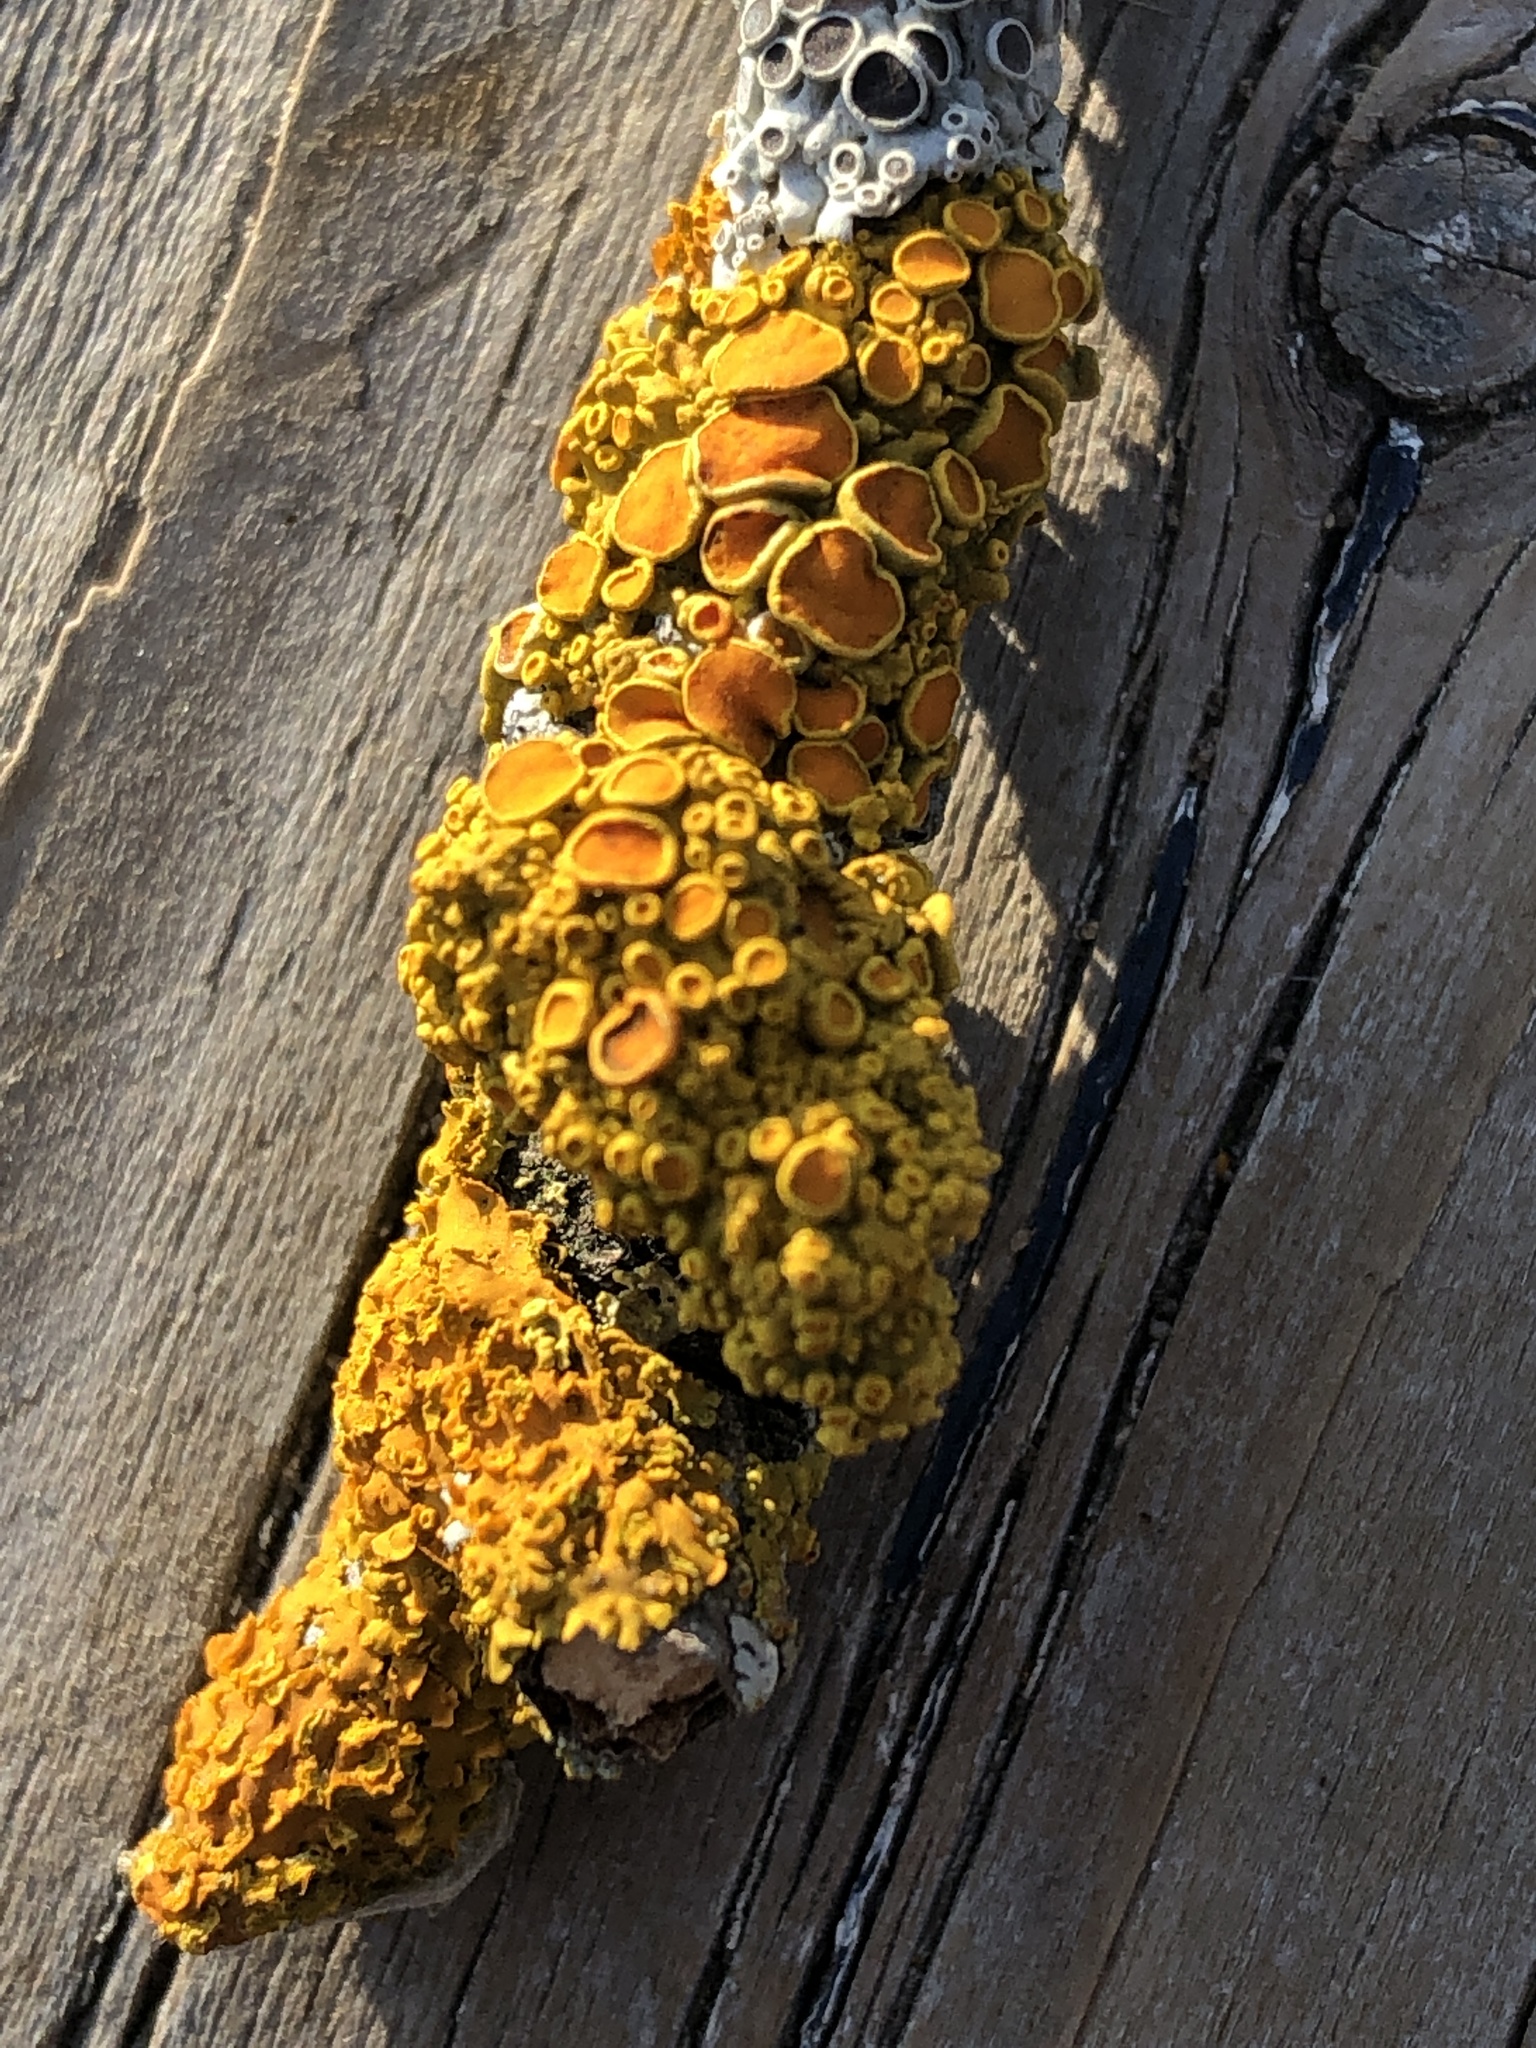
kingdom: Fungi
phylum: Ascomycota
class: Lecanoromycetes
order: Teloschistales
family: Teloschistaceae
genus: Oxneria
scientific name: Oxneria fallax
